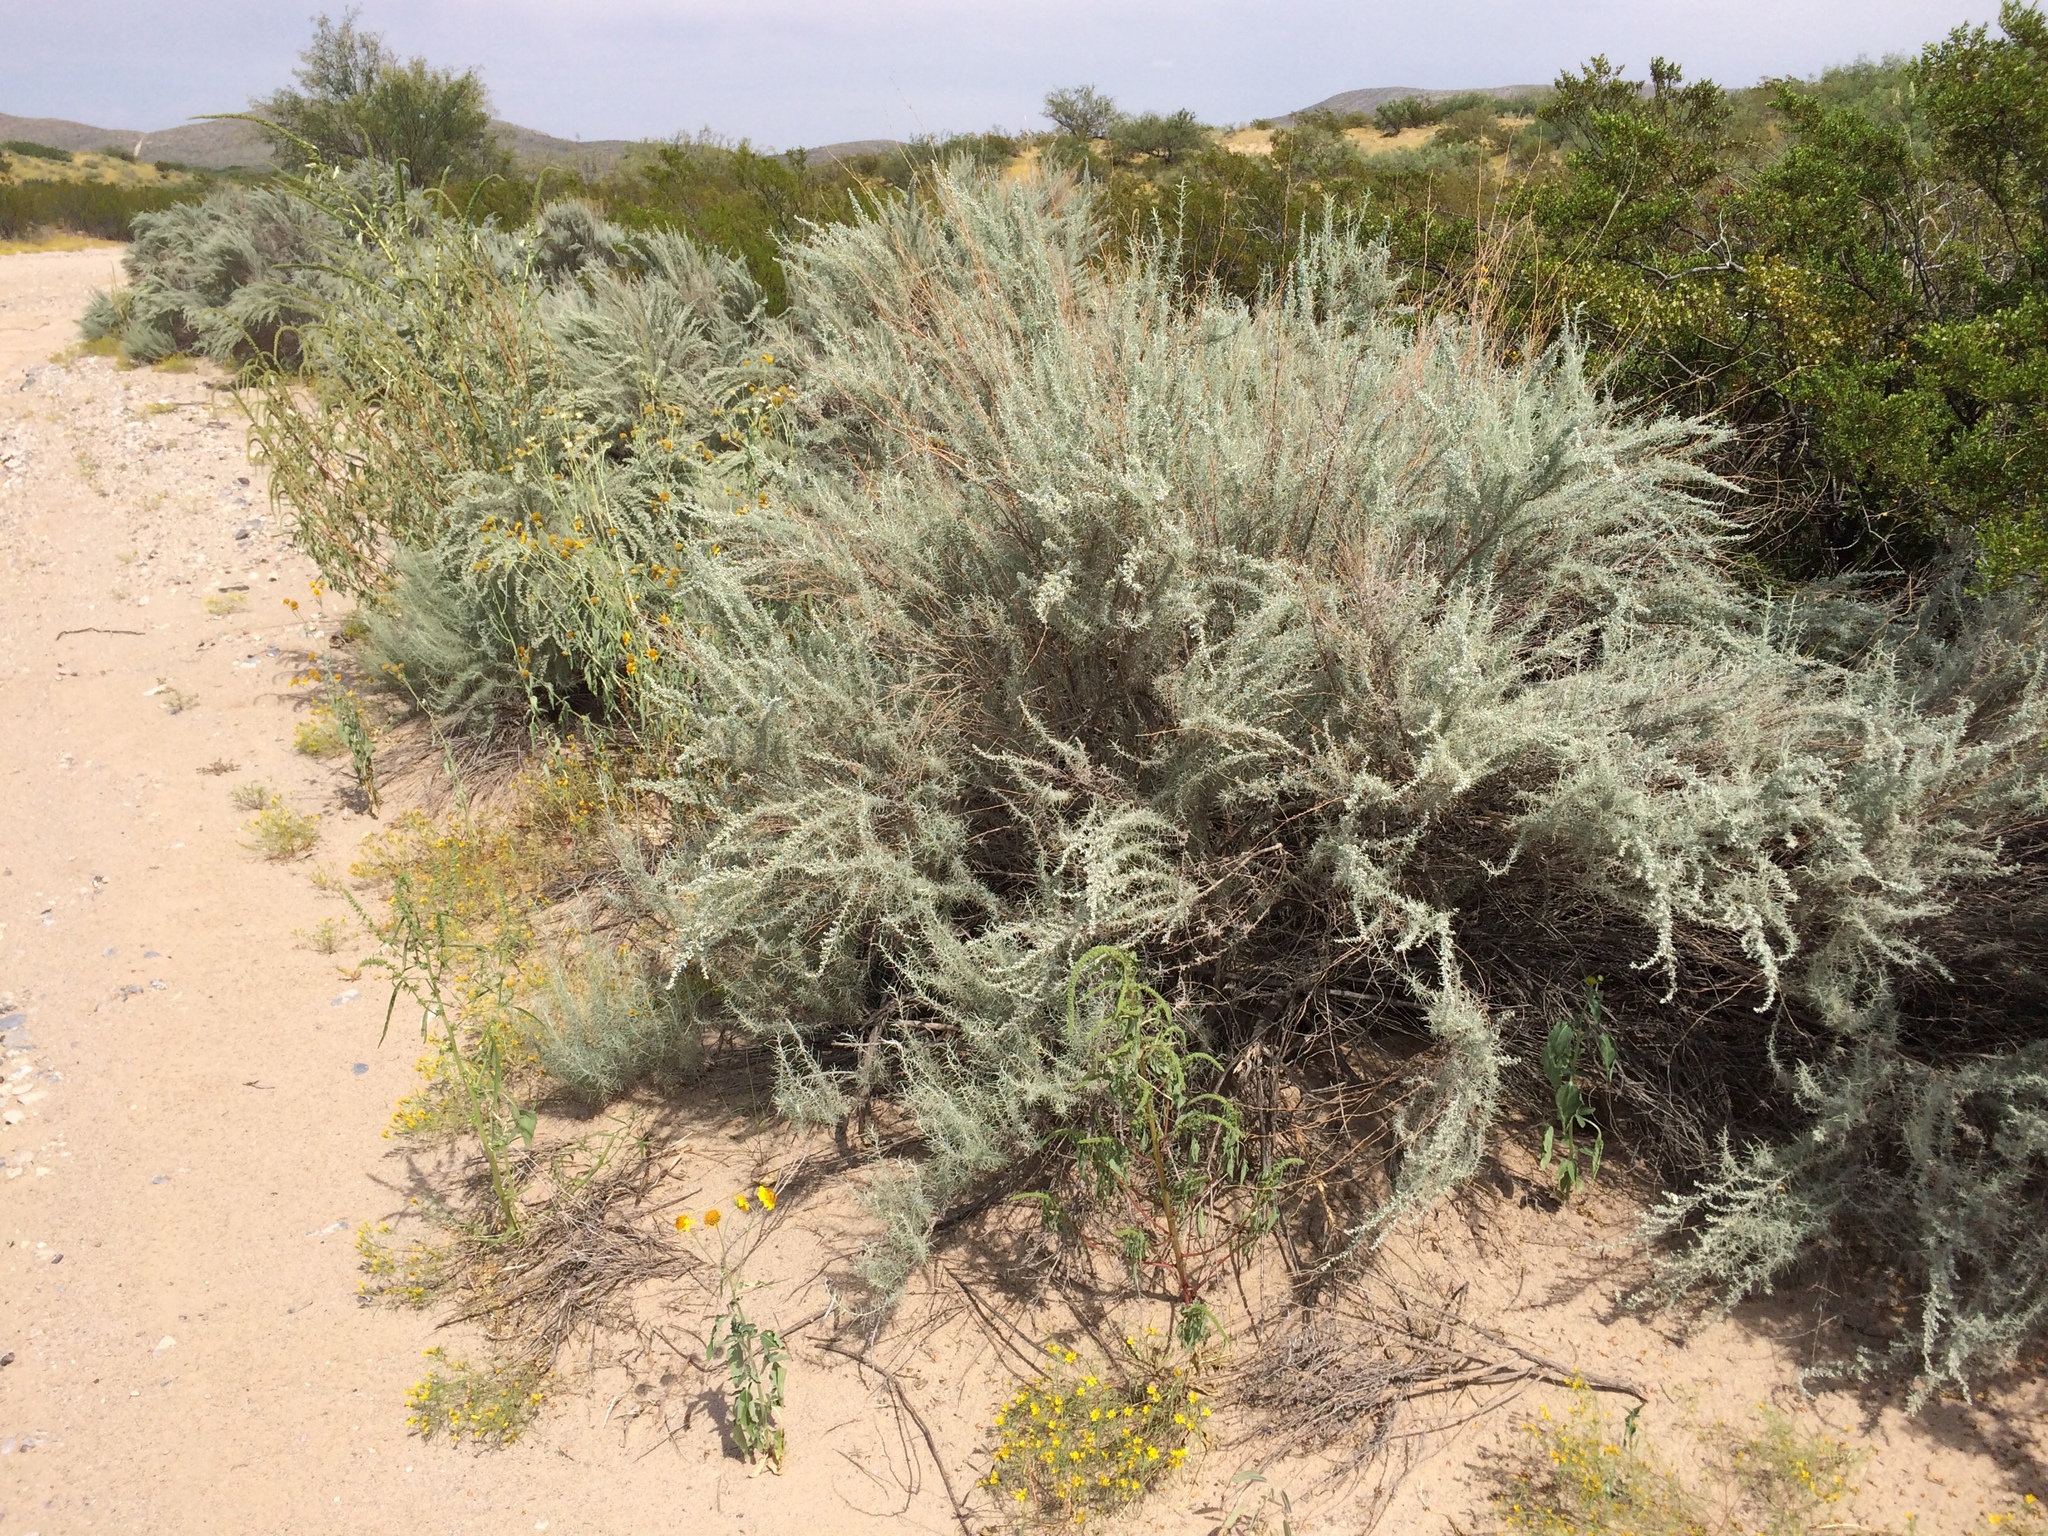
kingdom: Plantae
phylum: Tracheophyta
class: Magnoliopsida
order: Asterales
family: Asteraceae
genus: Artemisia
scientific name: Artemisia filifolia
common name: Sand-sage
